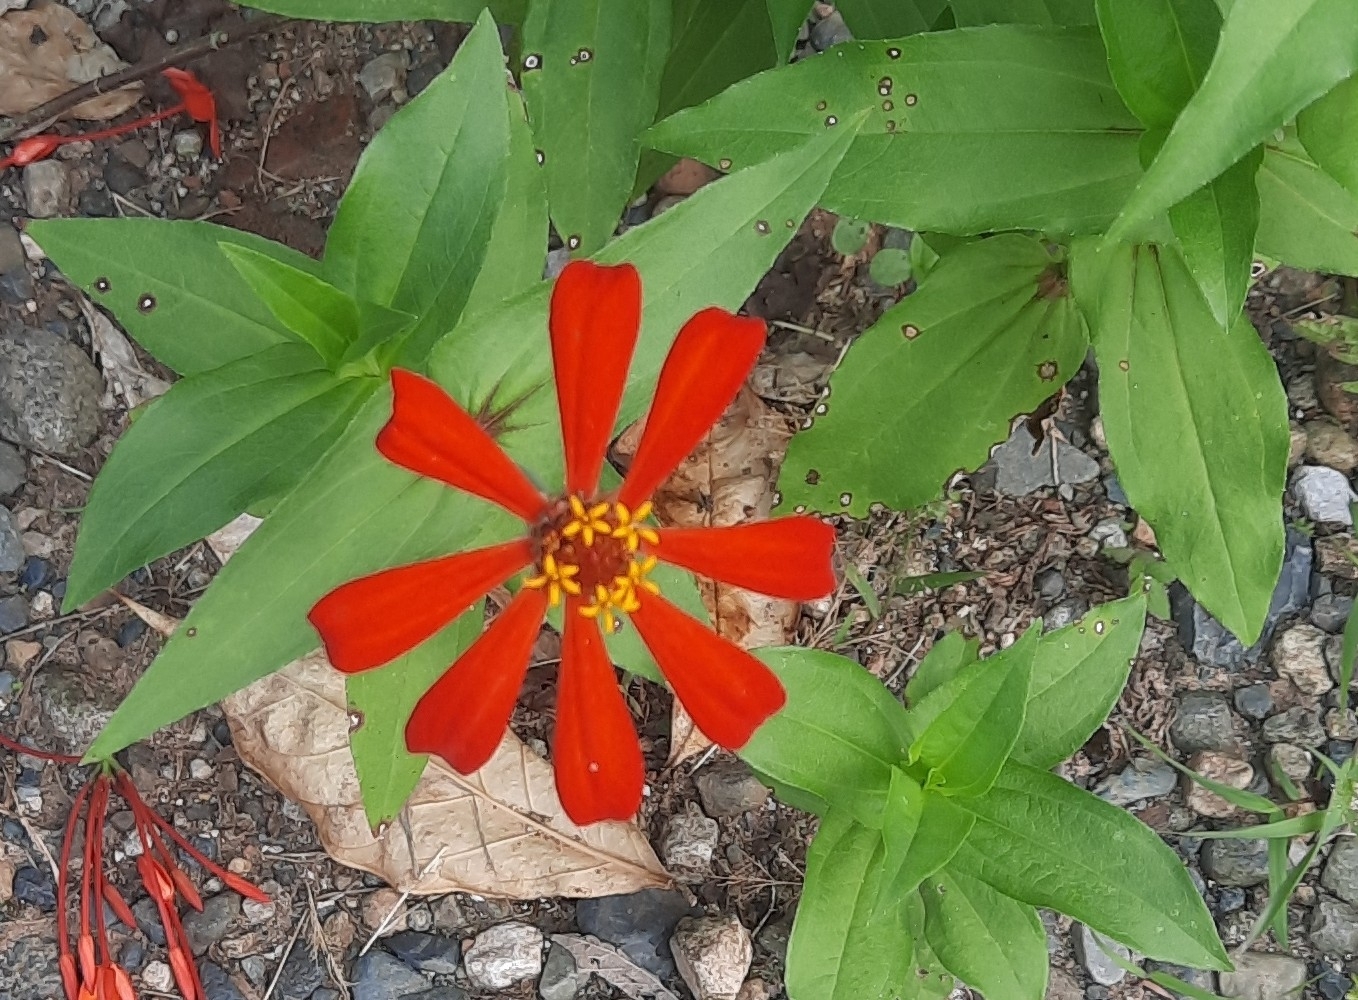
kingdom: Plantae
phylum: Tracheophyta
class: Magnoliopsida
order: Asterales
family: Asteraceae
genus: Zinnia
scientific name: Zinnia elegans
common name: Youth-and-age
